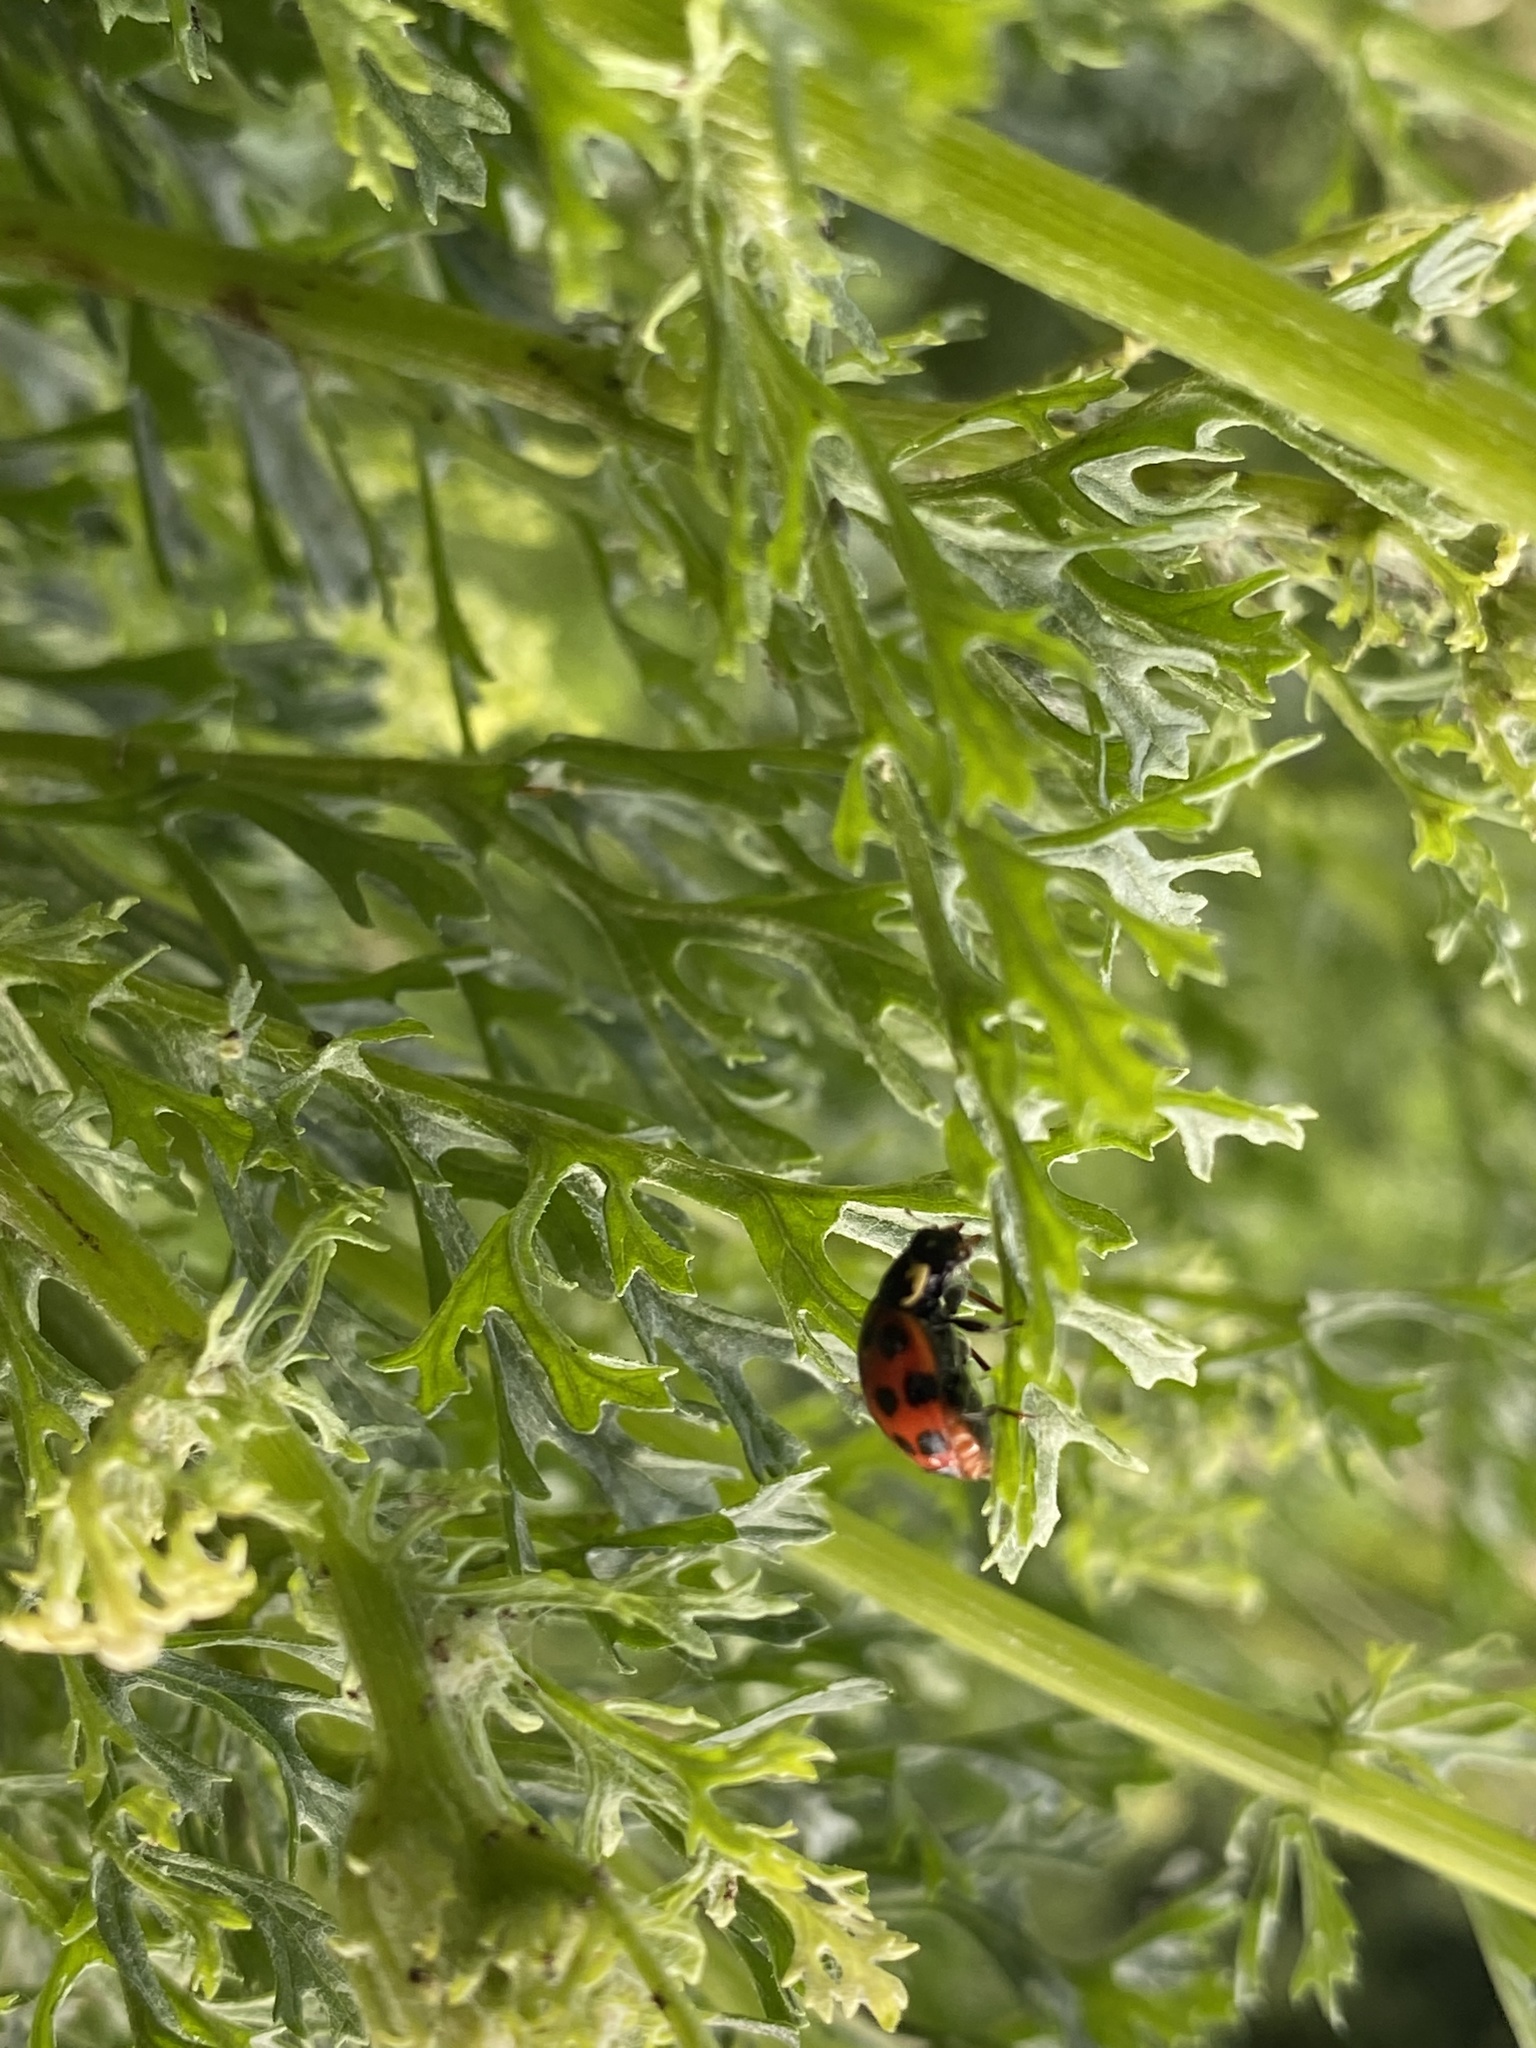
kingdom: Animalia
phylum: Arthropoda
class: Insecta
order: Coleoptera
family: Coccinellidae
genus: Harmonia
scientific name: Harmonia axyridis
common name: Harlequin ladybird
